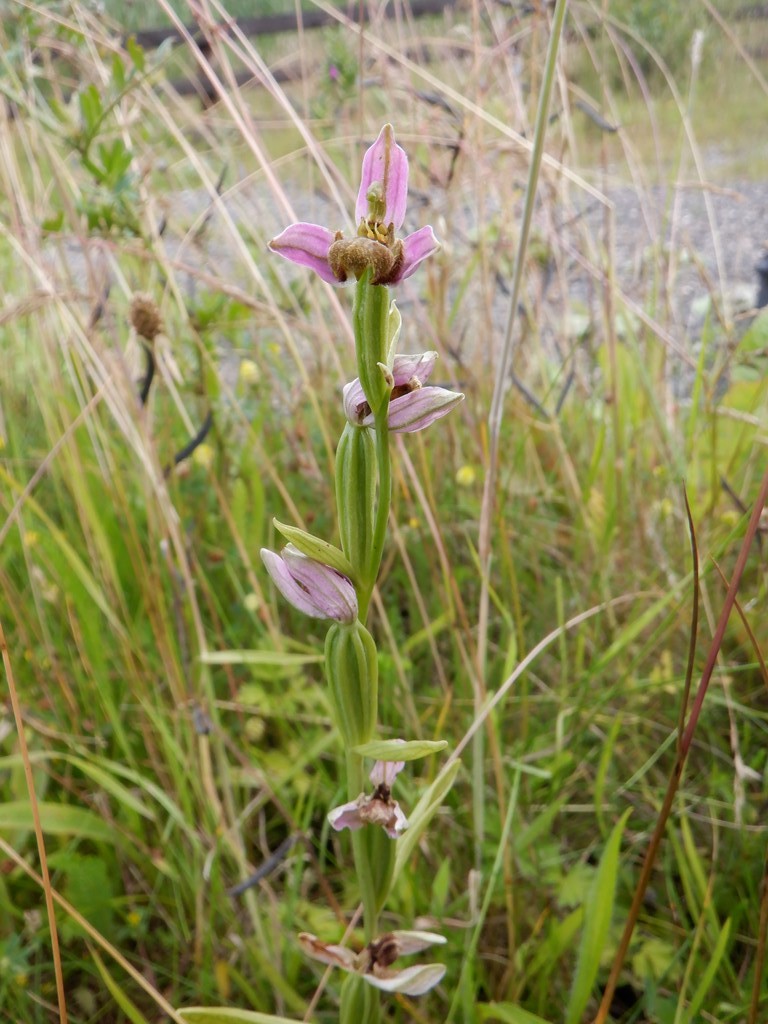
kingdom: Plantae
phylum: Tracheophyta
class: Liliopsida
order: Asparagales
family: Orchidaceae
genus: Ophrys
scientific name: Ophrys apifera
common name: Bee orchid
